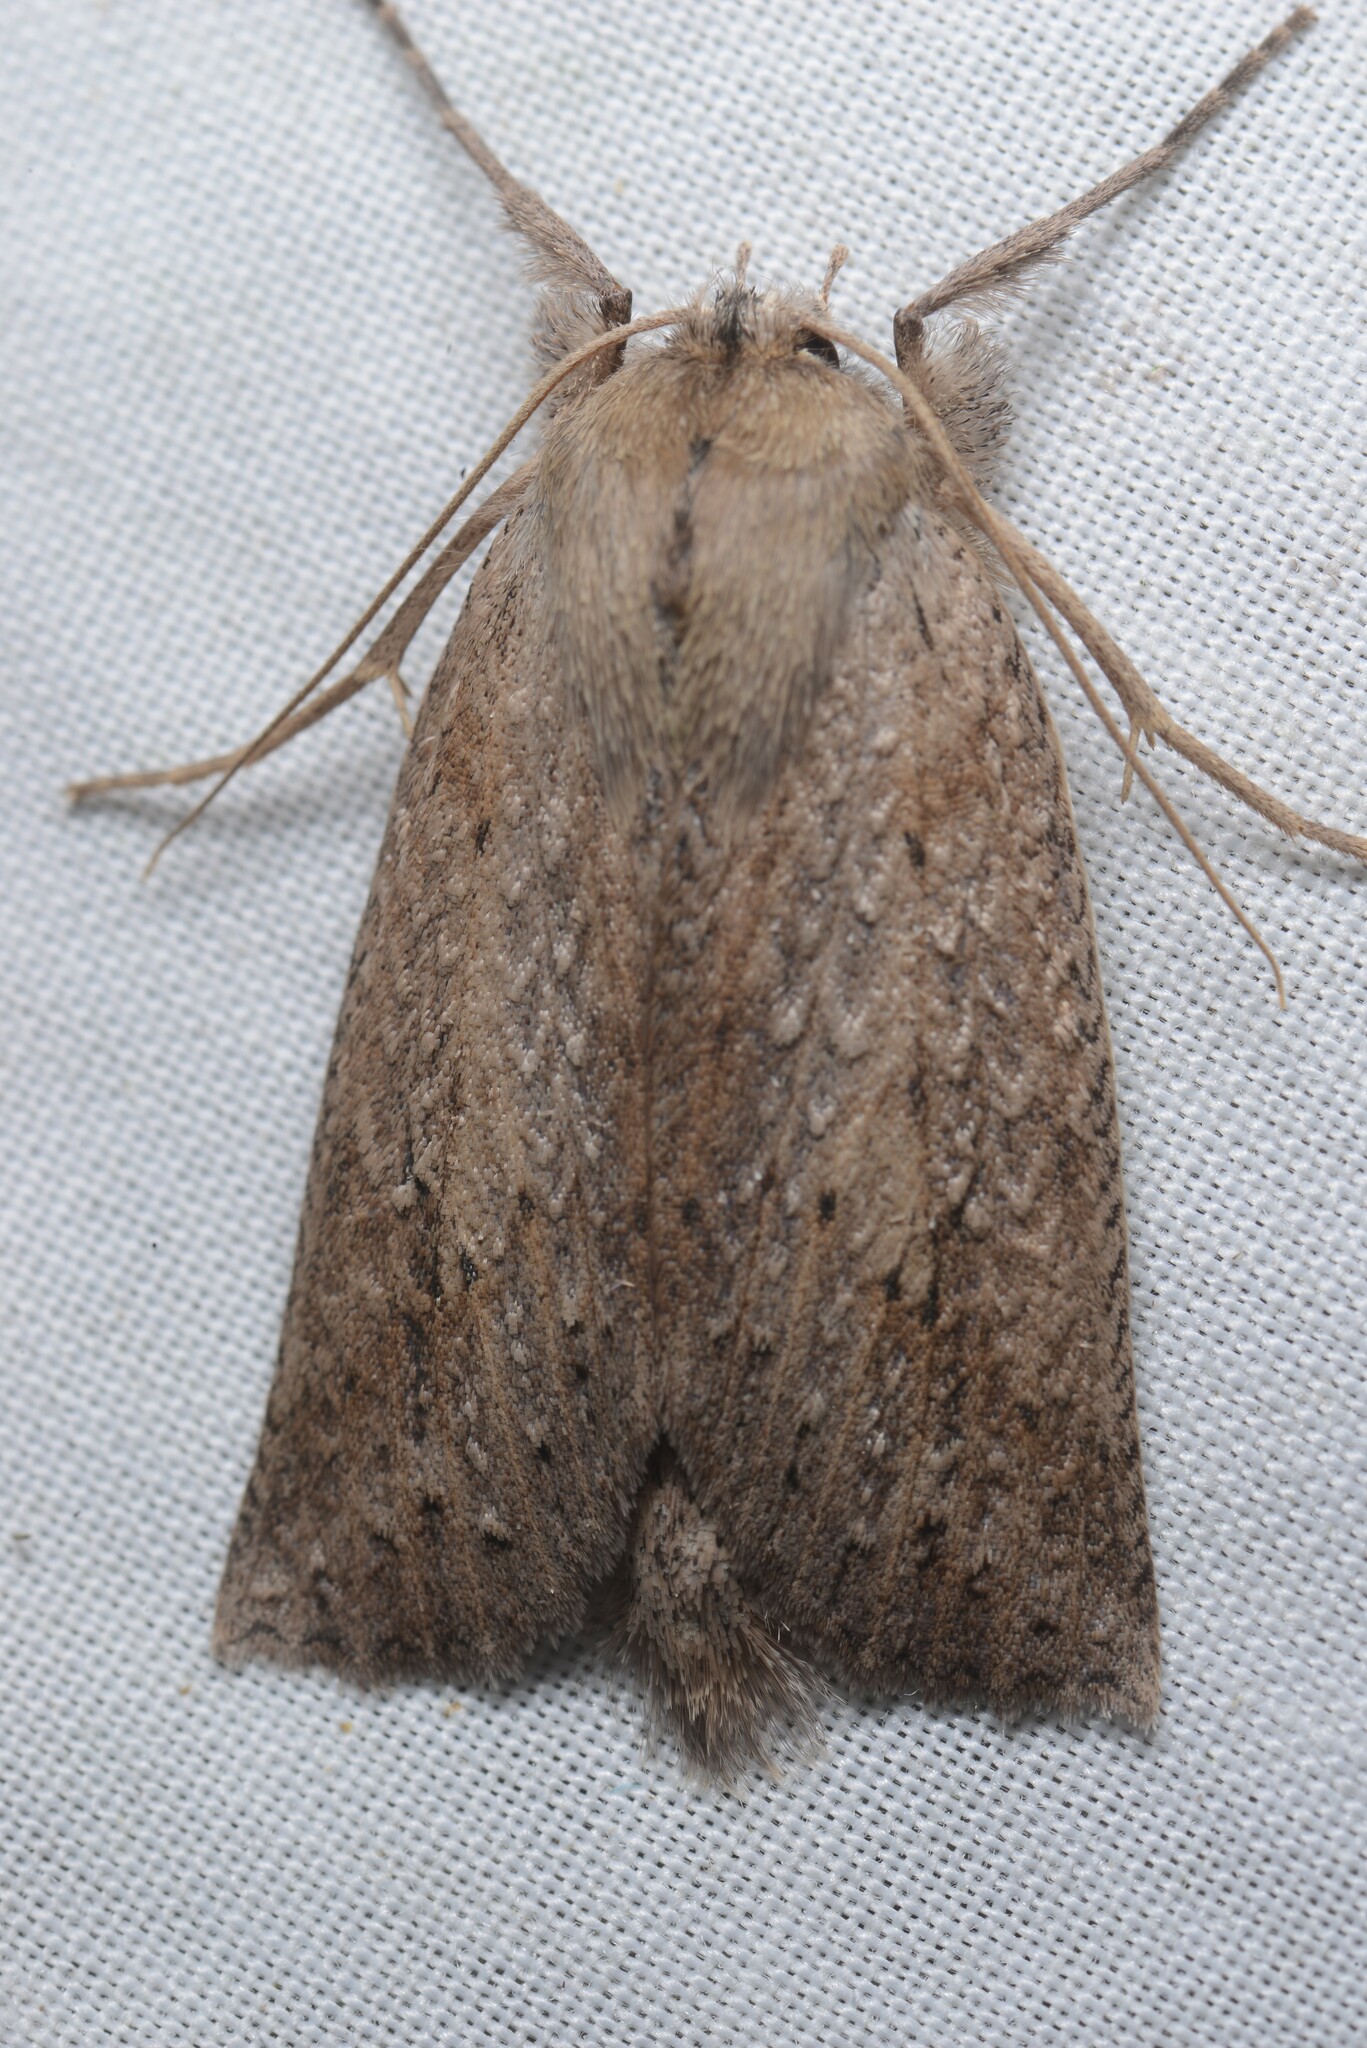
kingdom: Animalia
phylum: Arthropoda
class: Insecta
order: Lepidoptera
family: Geometridae
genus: Declana
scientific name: Declana leptomera
